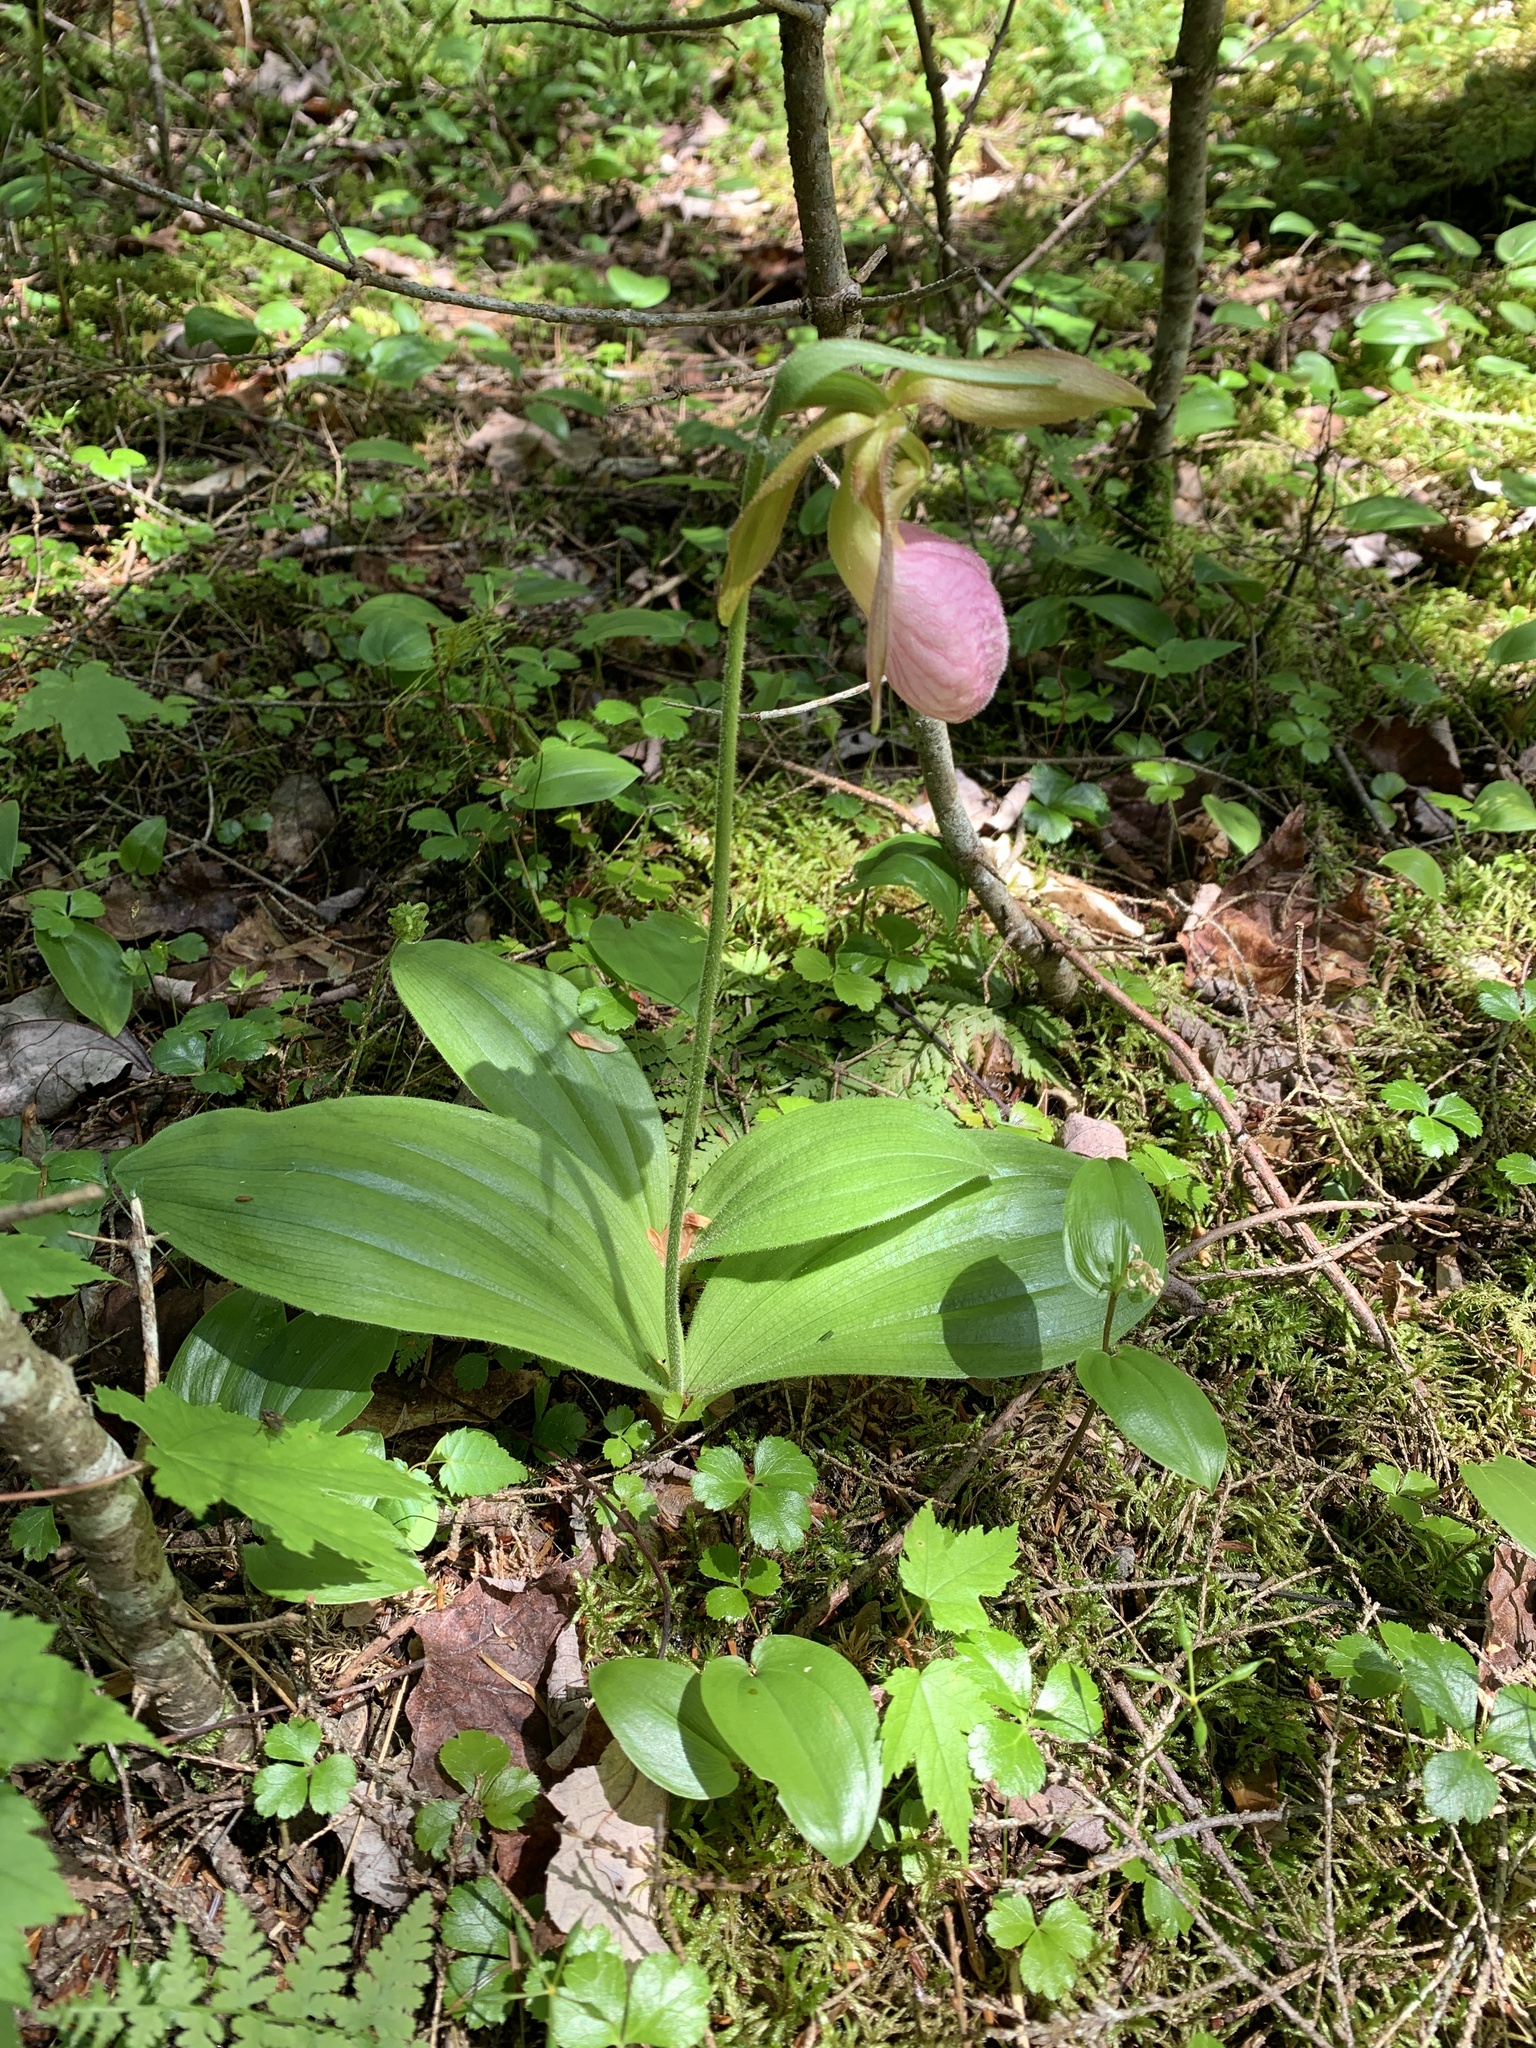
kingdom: Plantae
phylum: Tracheophyta
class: Liliopsida
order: Asparagales
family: Orchidaceae
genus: Cypripedium
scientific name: Cypripedium acaule
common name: Pink lady's-slipper
